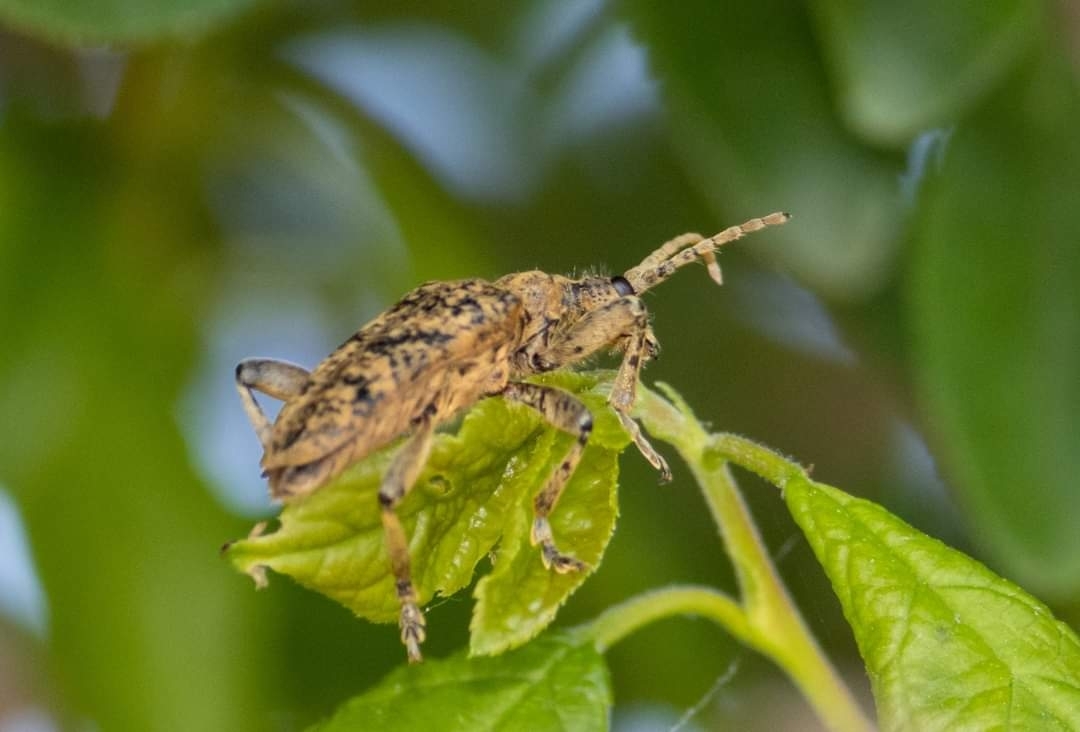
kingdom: Animalia
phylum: Arthropoda
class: Insecta
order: Coleoptera
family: Cerambycidae
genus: Rhagium
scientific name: Rhagium sycophanta
